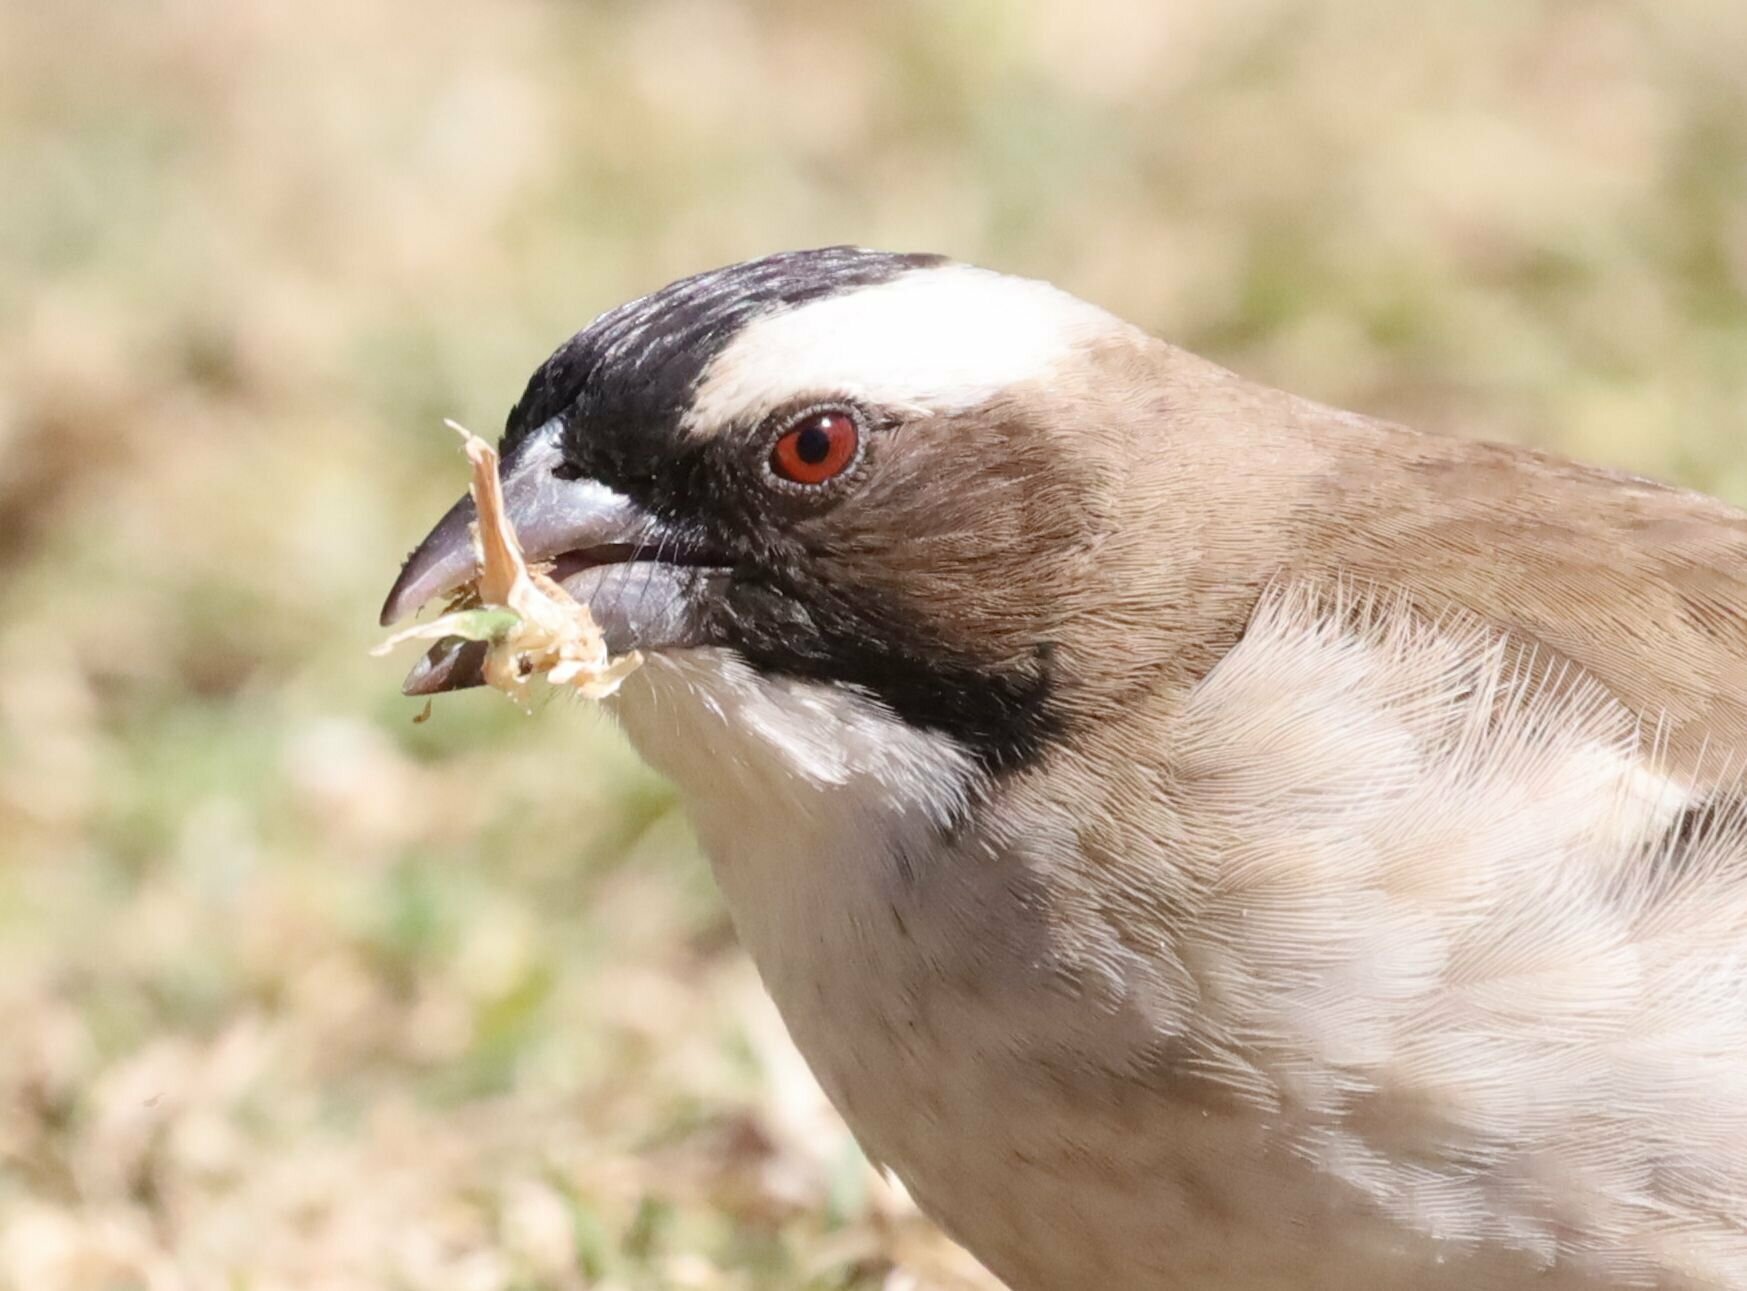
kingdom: Animalia
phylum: Chordata
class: Aves
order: Passeriformes
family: Passeridae
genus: Plocepasser
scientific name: Plocepasser mahali
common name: White-browed sparrow-weaver
